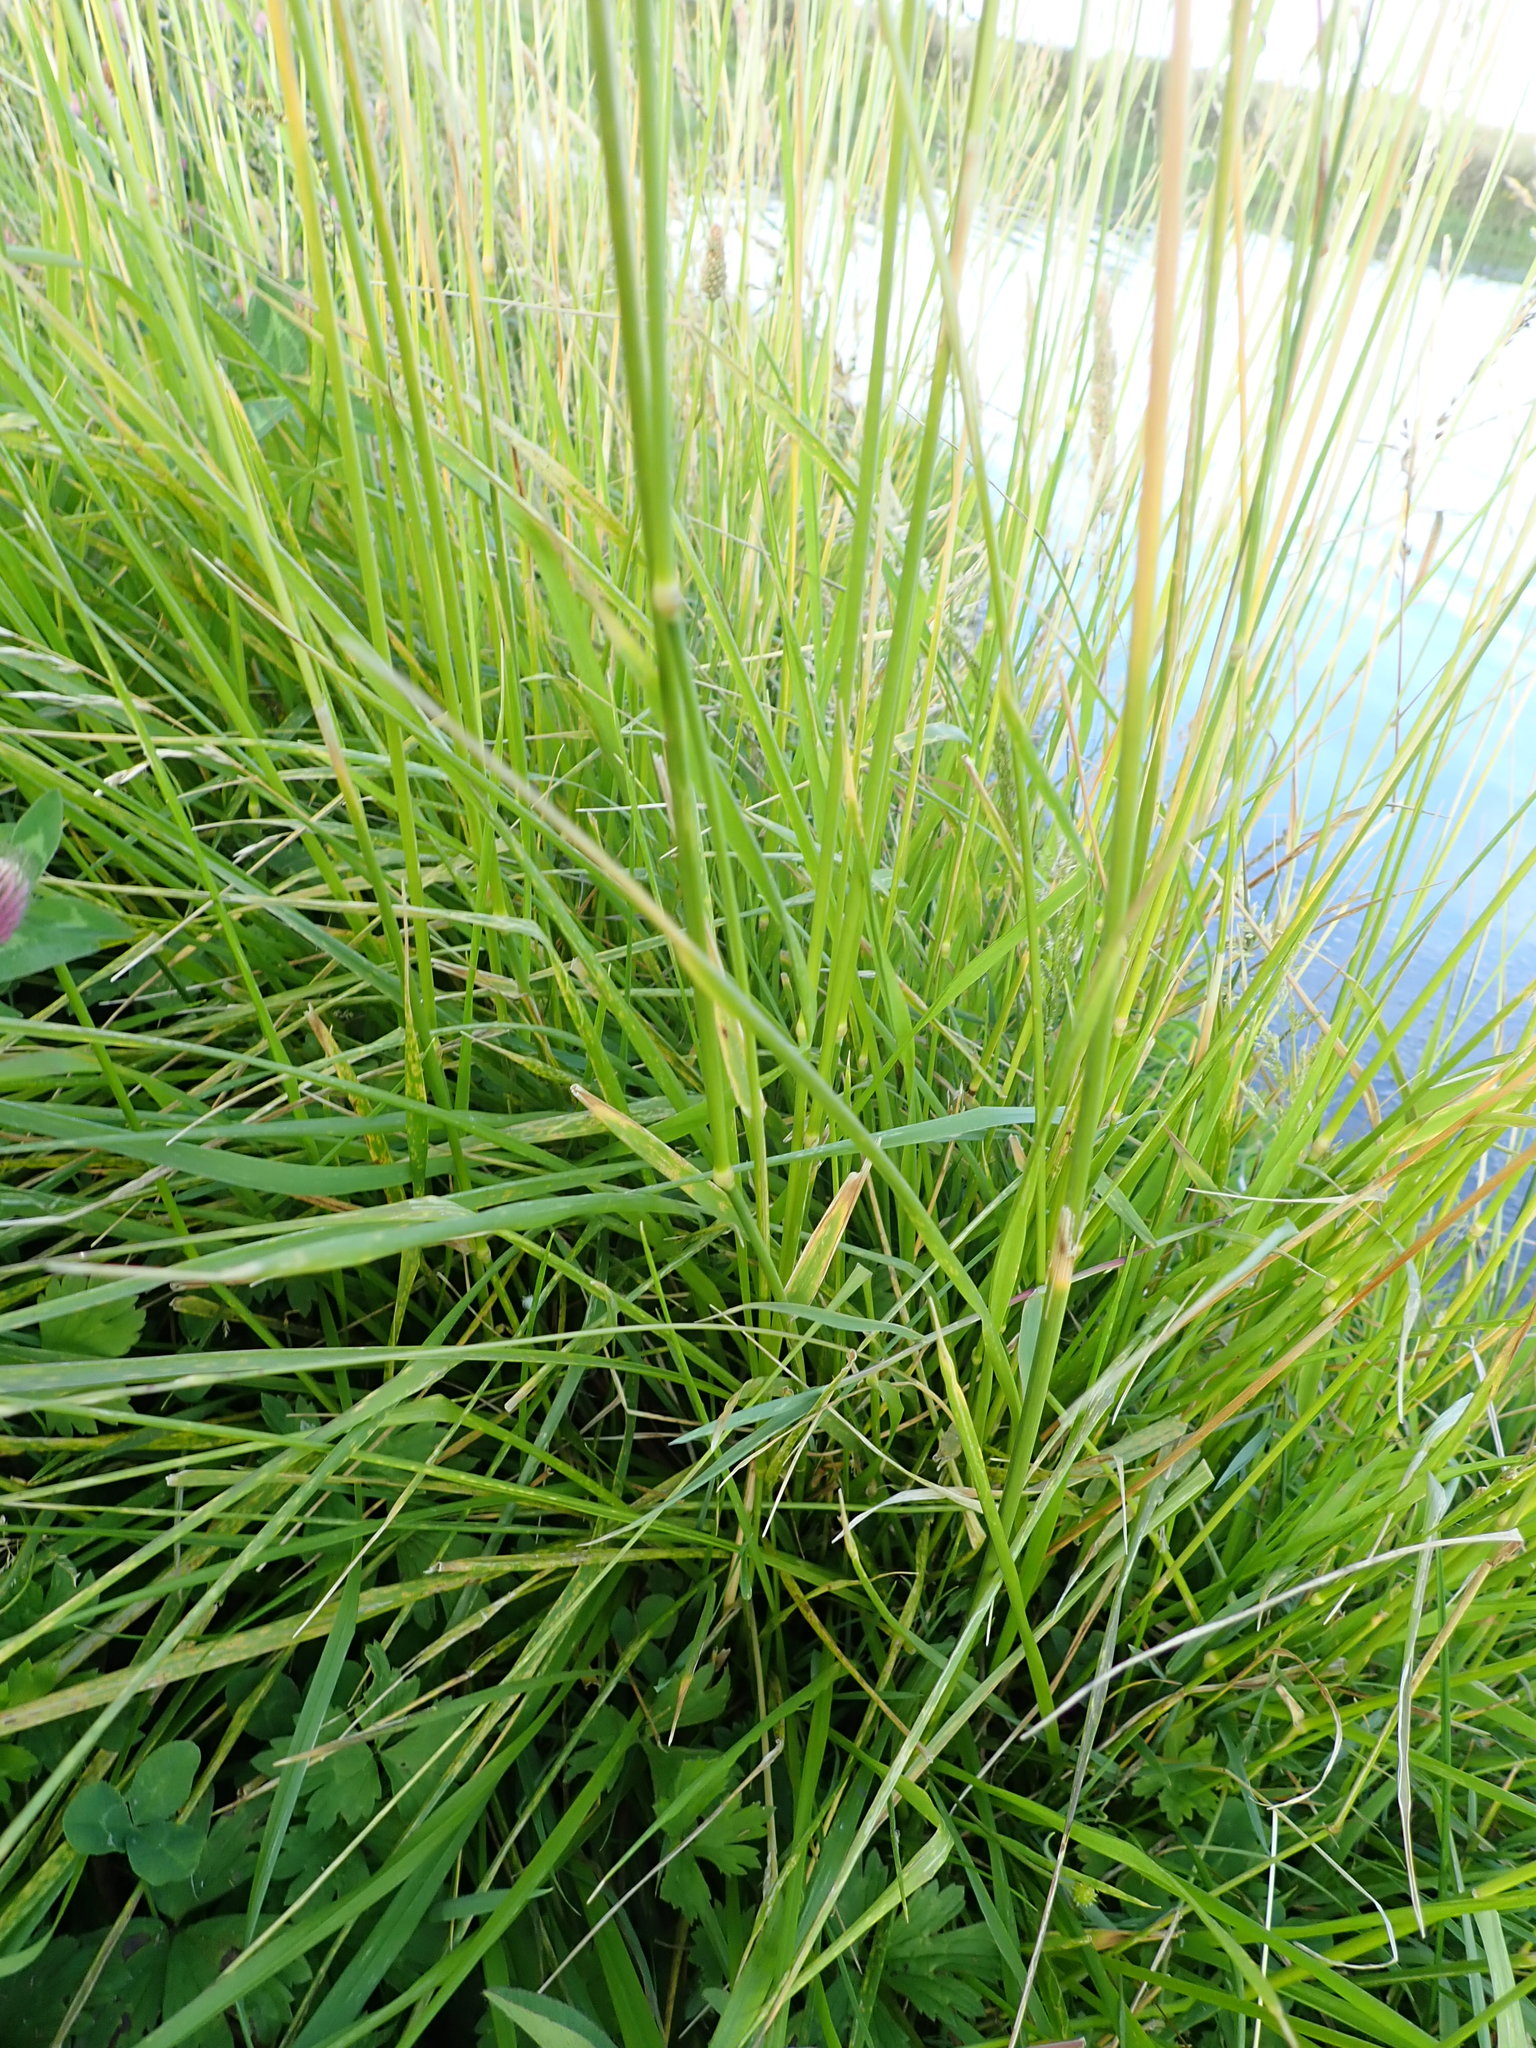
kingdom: Plantae
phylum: Tracheophyta
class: Liliopsida
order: Poales
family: Poaceae
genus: Lolium
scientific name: Lolium arundinaceum
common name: Reed fescue
